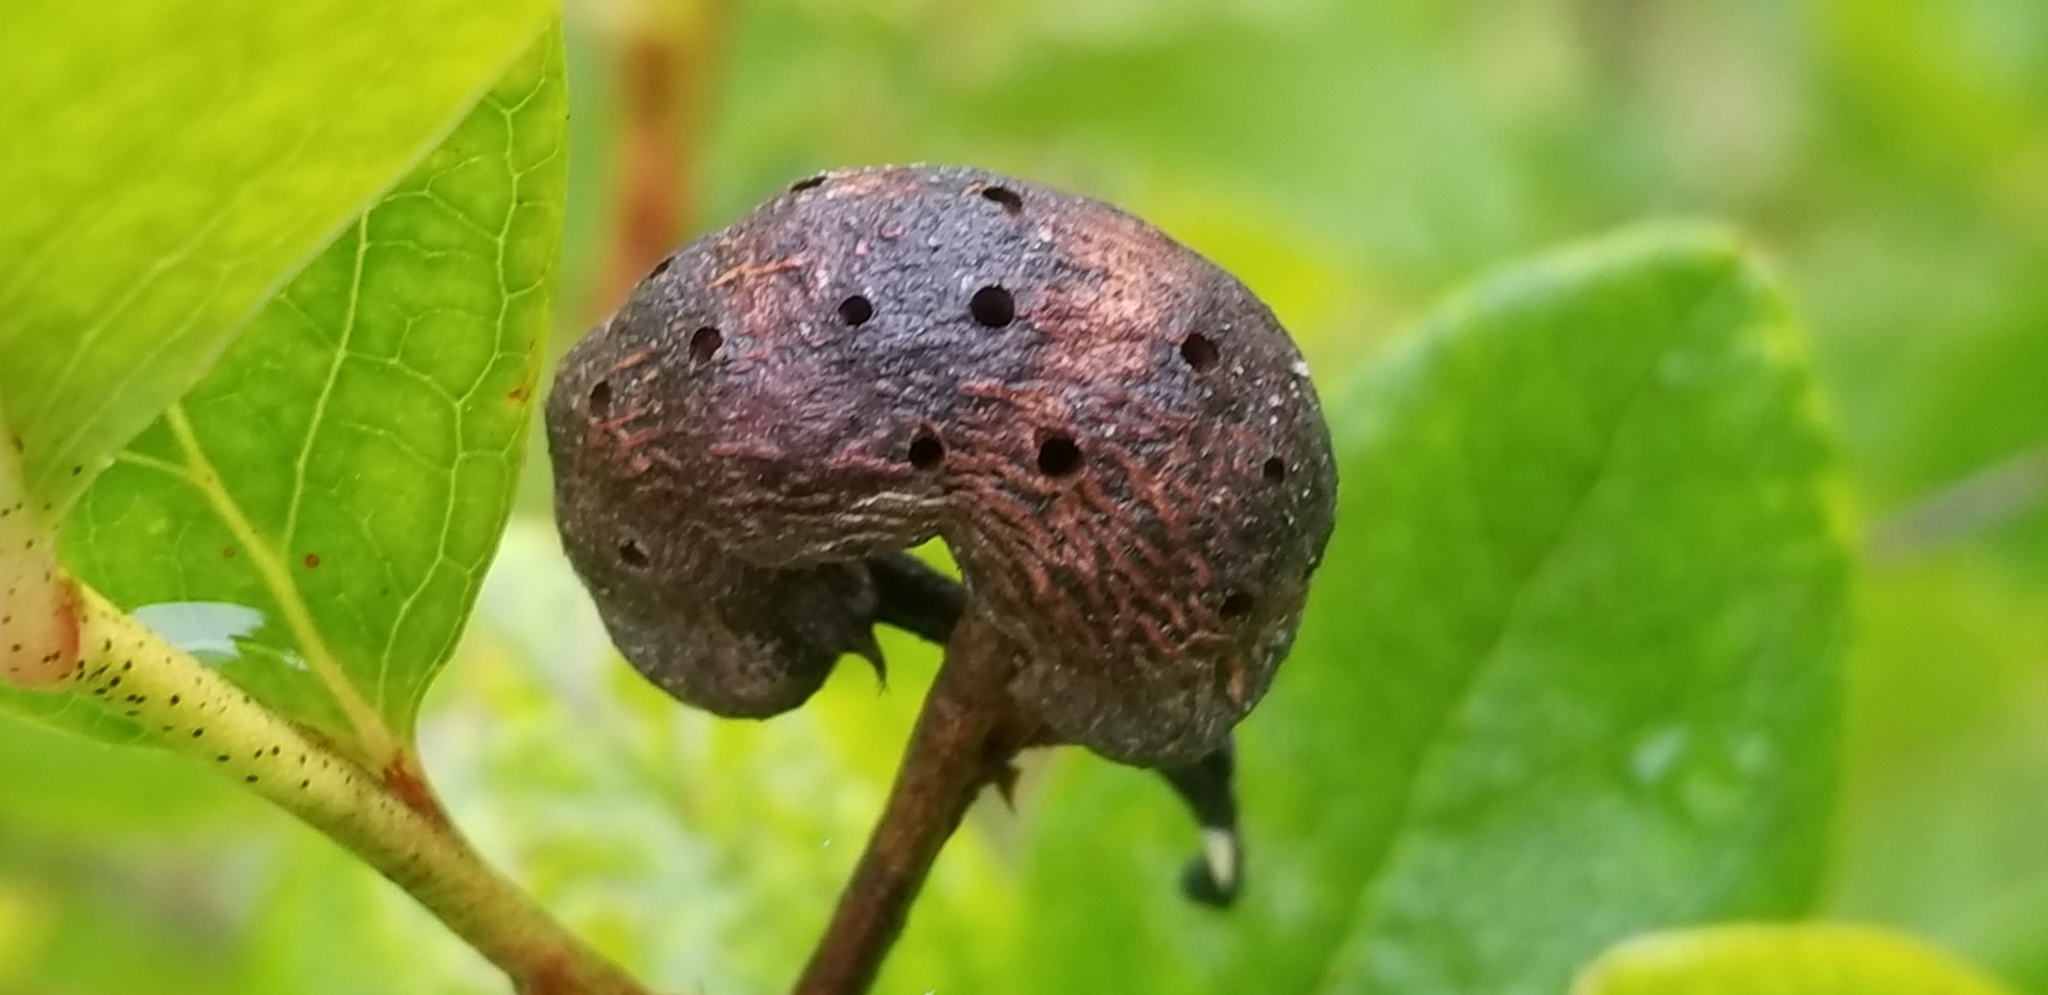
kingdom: Animalia
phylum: Arthropoda
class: Insecta
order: Hymenoptera
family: Pteromalidae
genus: Hemadas
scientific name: Hemadas nubilipennis
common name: Blueberry stem gall wasp
